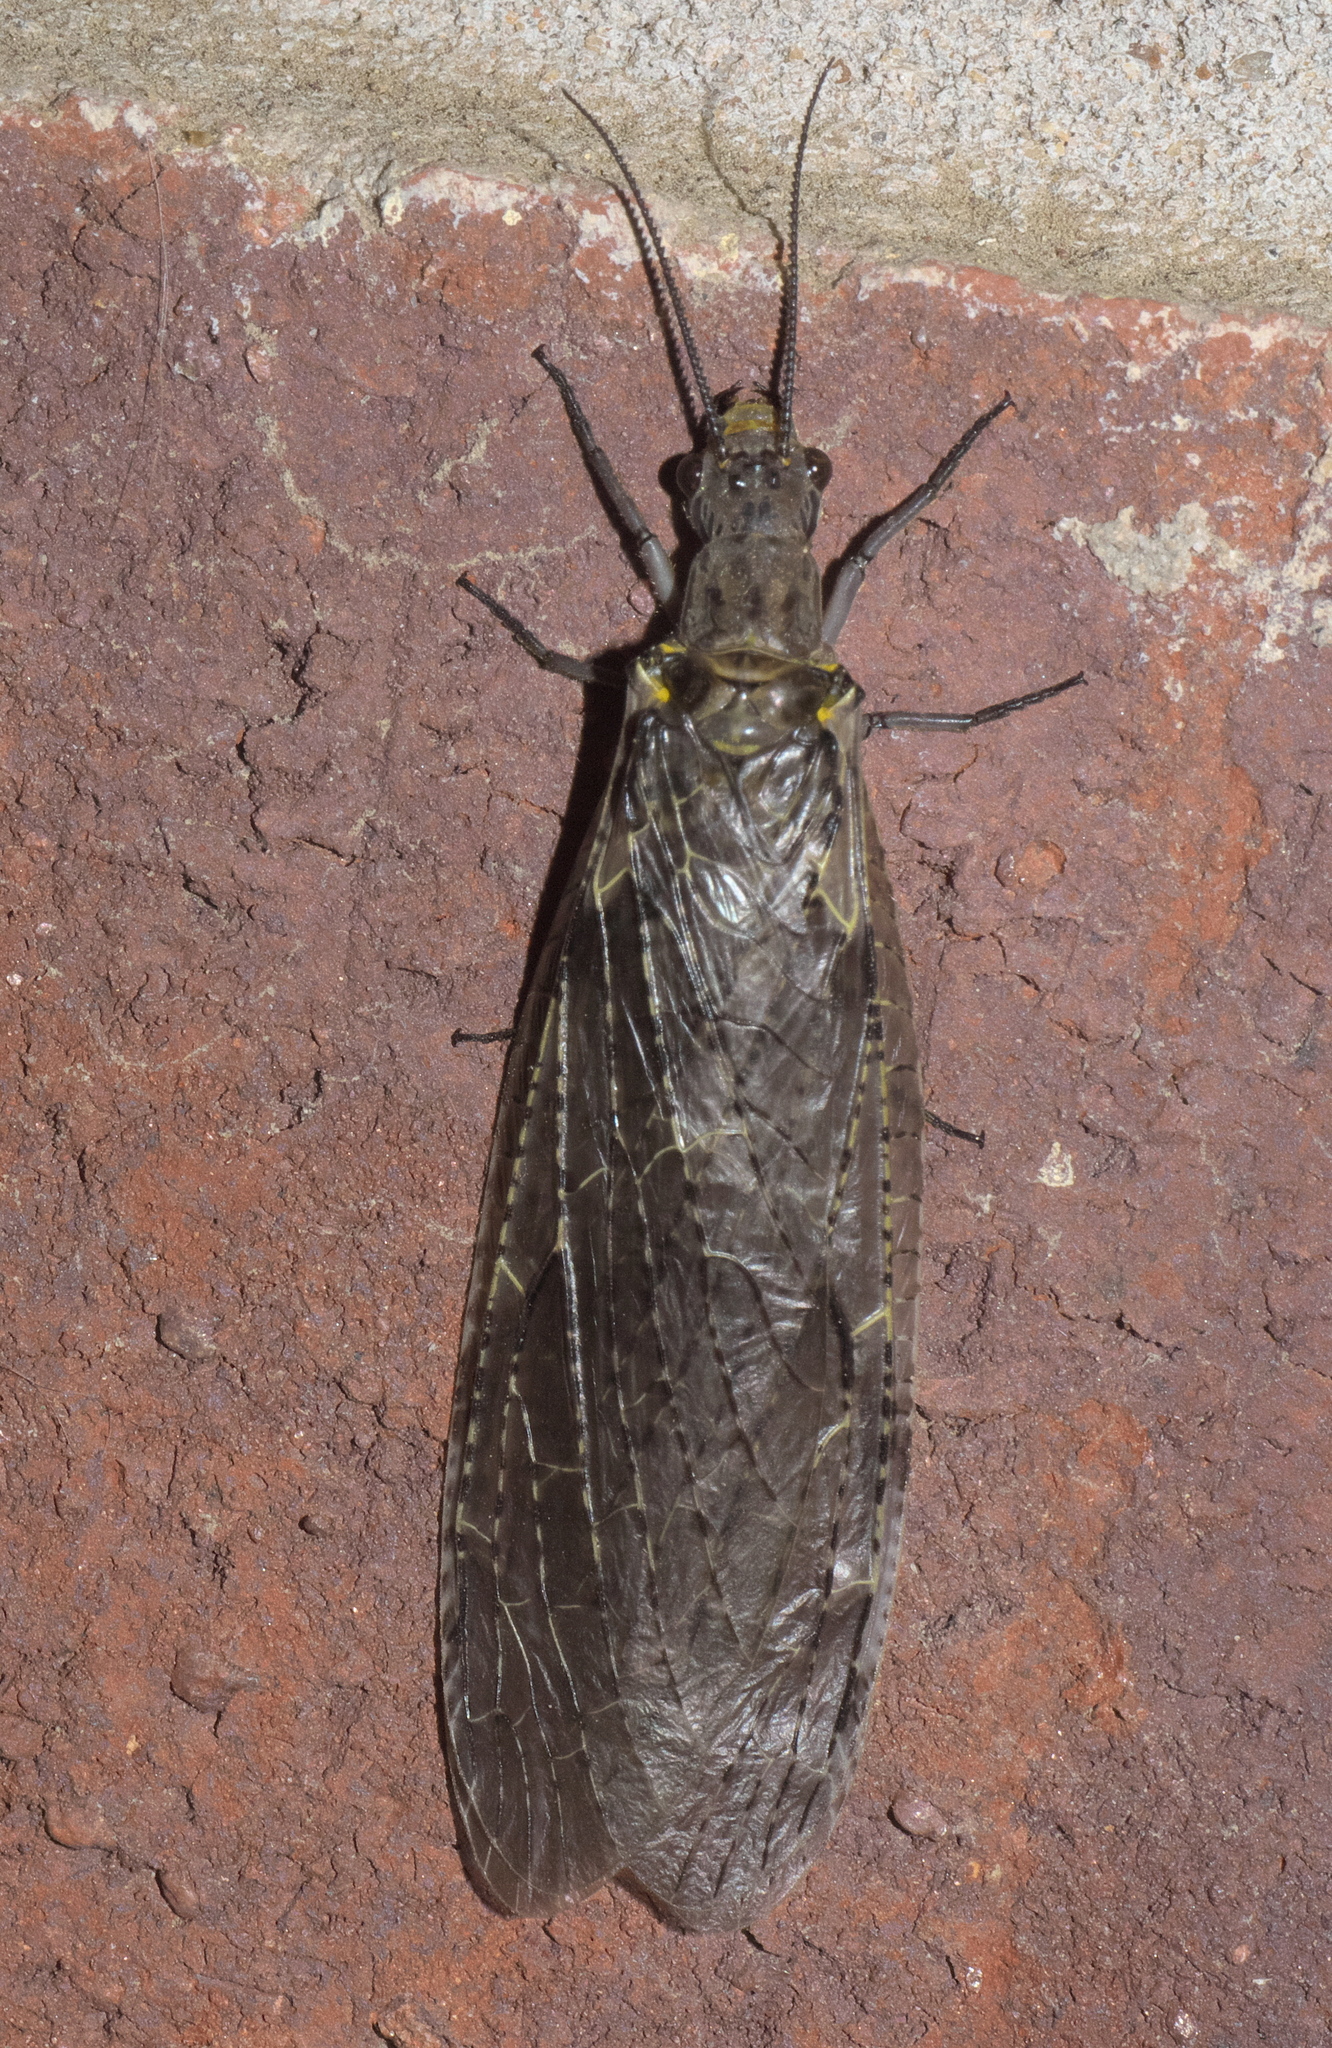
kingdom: Animalia
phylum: Arthropoda
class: Insecta
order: Megaloptera
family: Corydalidae
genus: Chauliodes
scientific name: Chauliodes rastricornis
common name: Spring fishfly
